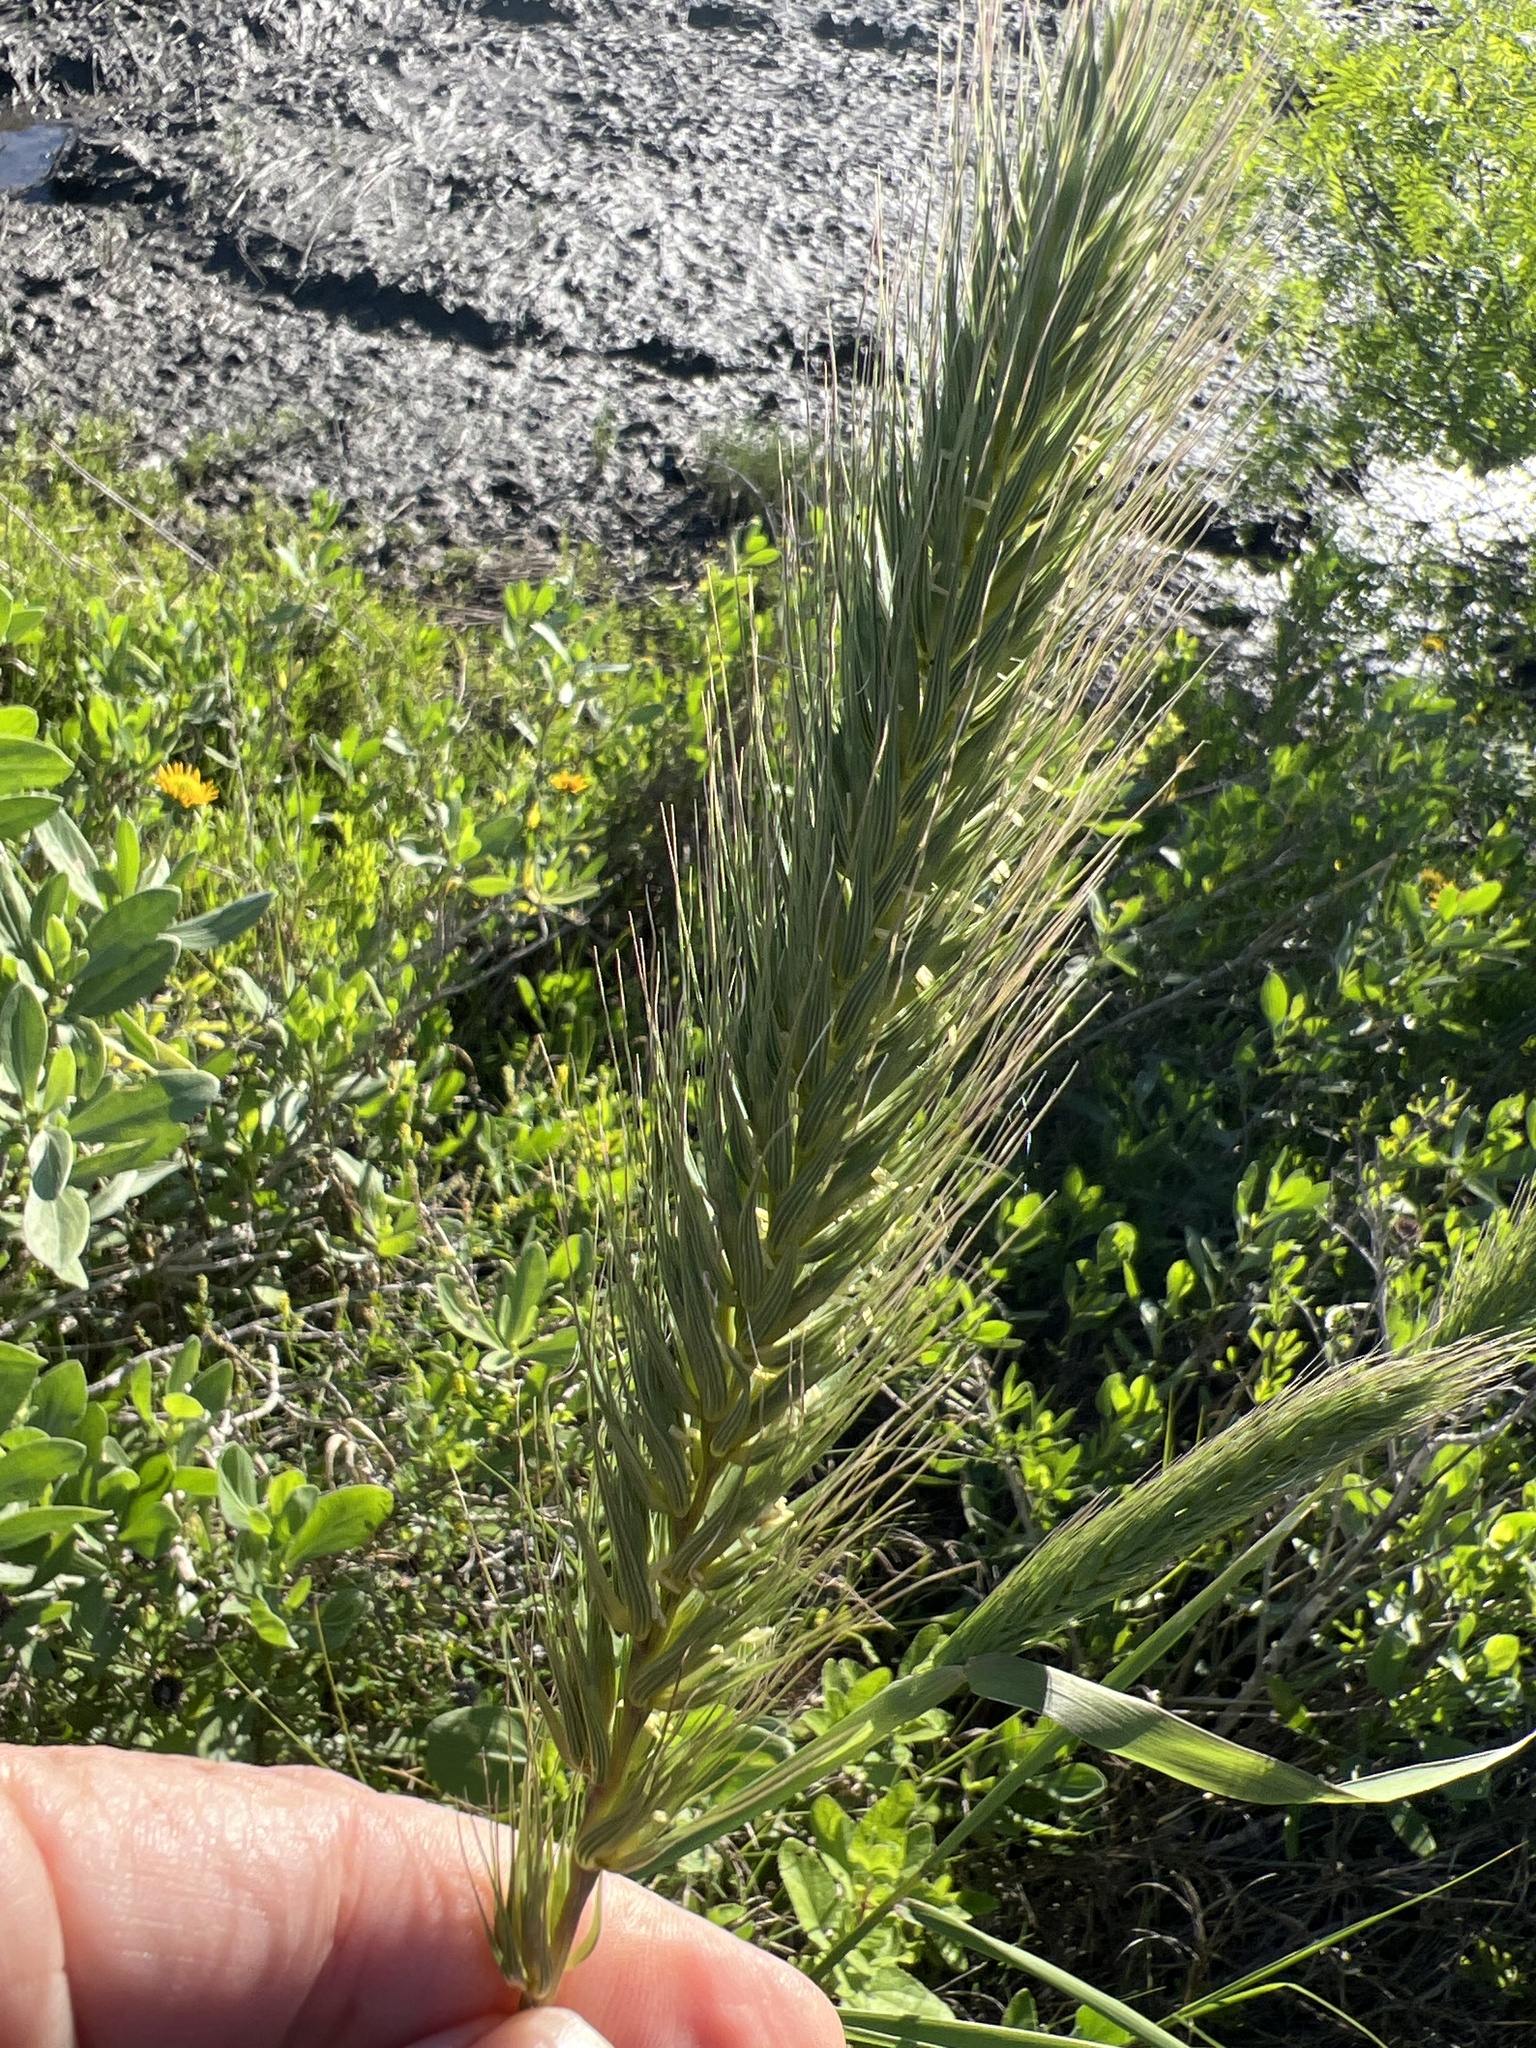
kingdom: Plantae
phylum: Tracheophyta
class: Liliopsida
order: Poales
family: Poaceae
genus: Elymus
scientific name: Elymus virginicus
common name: Common eastern wildrye
